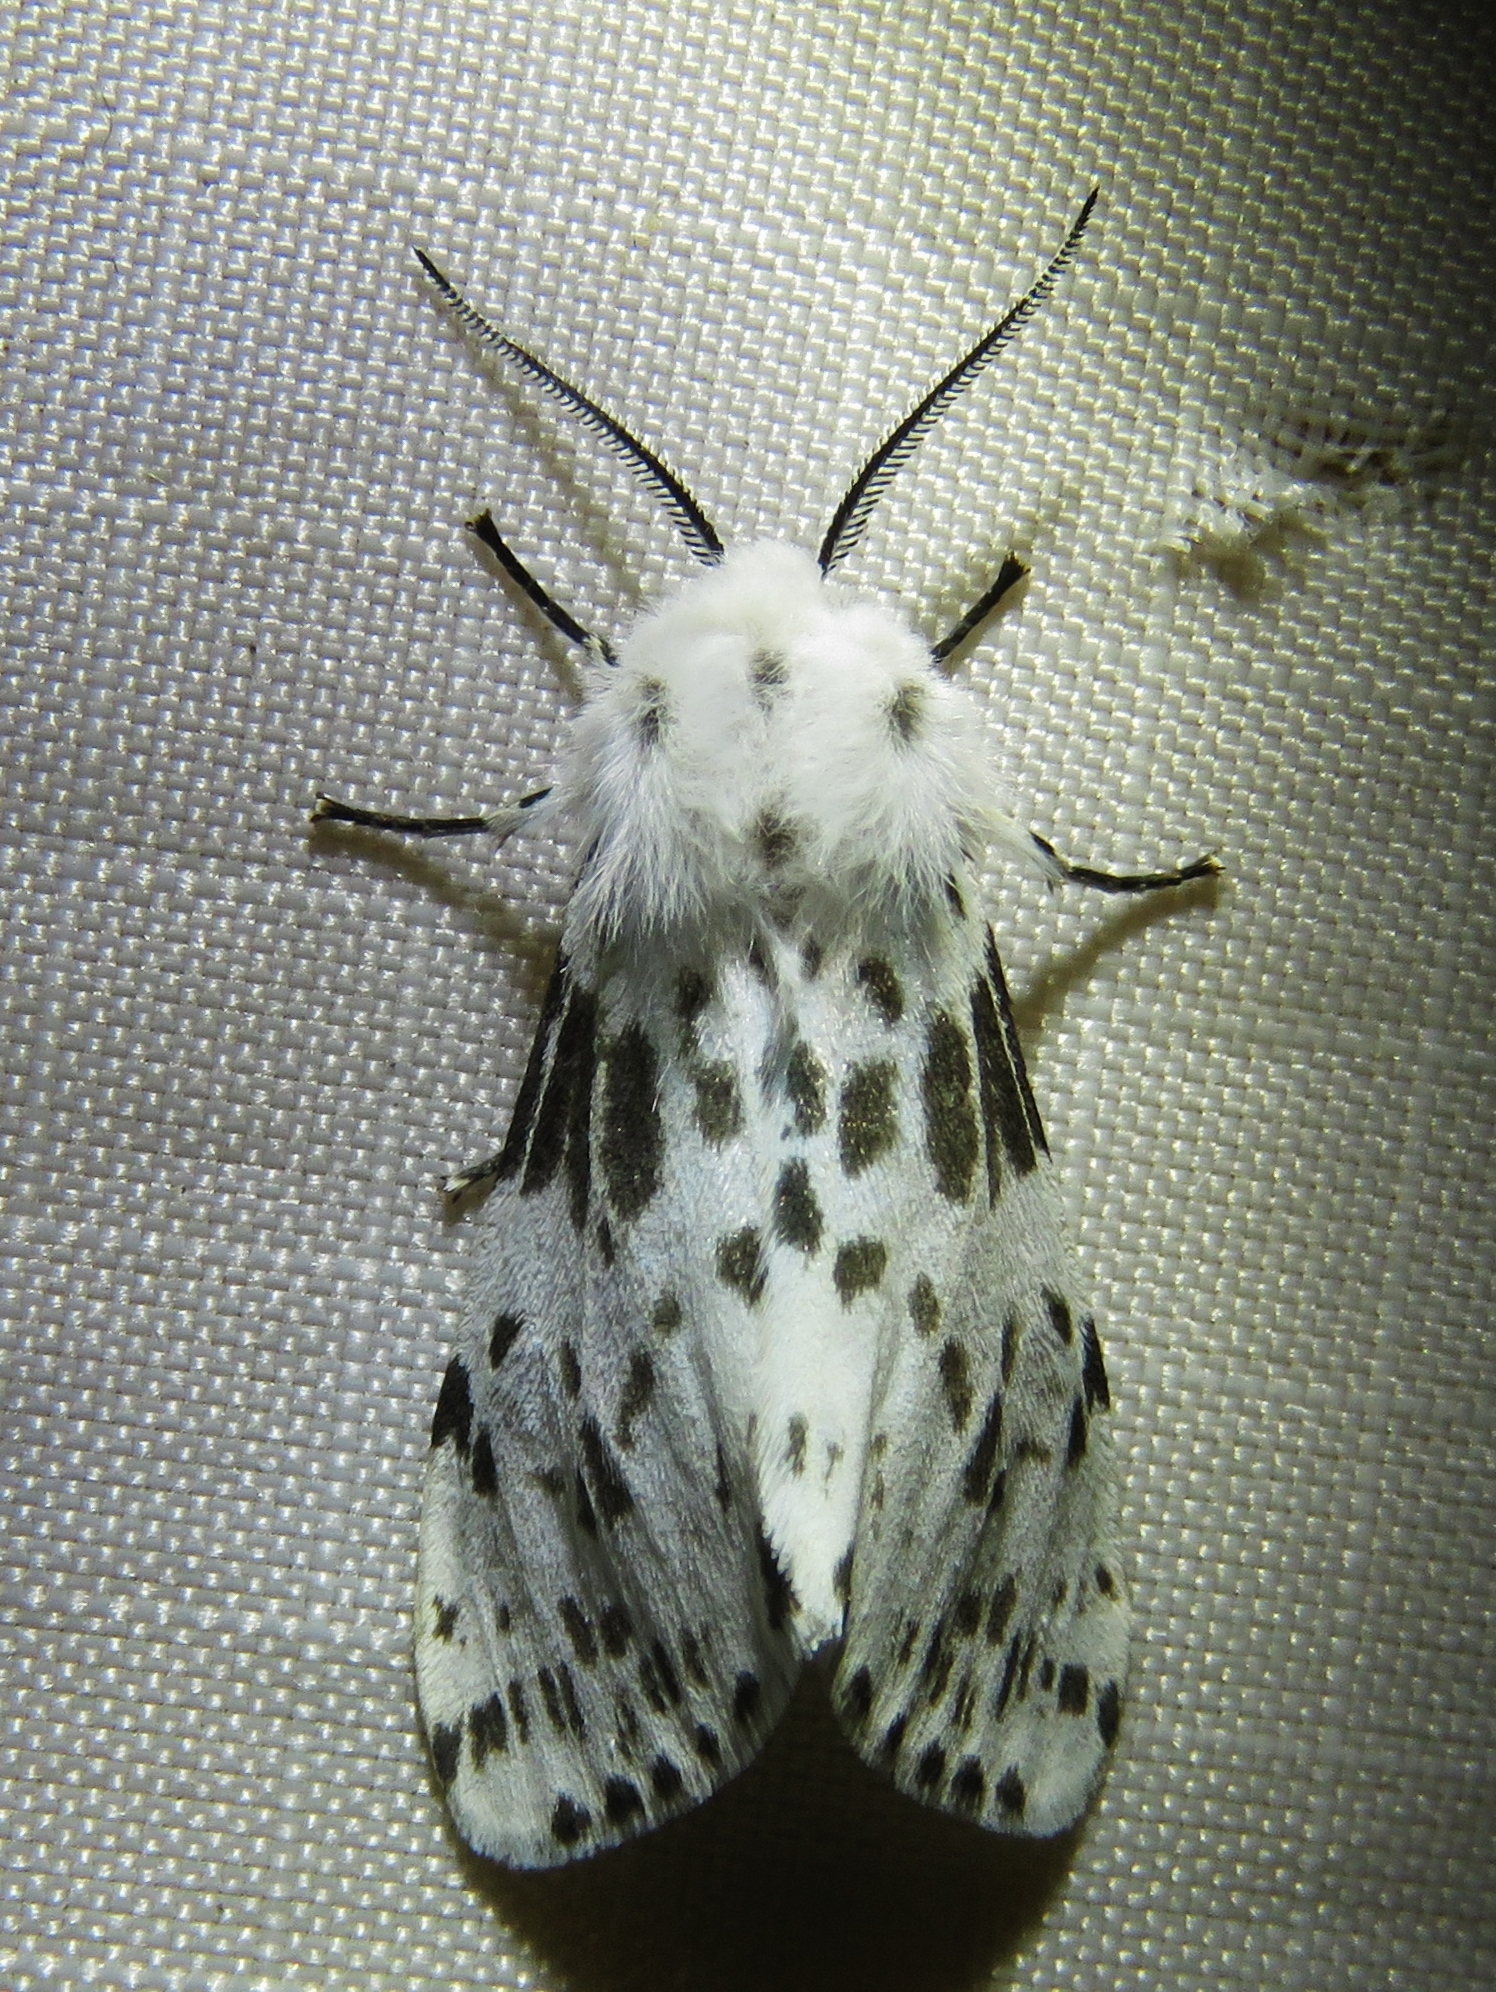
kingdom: Animalia
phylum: Arthropoda
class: Insecta
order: Lepidoptera
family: Erebidae
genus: Hyphantria
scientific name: Hyphantria cunea
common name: American white moth
